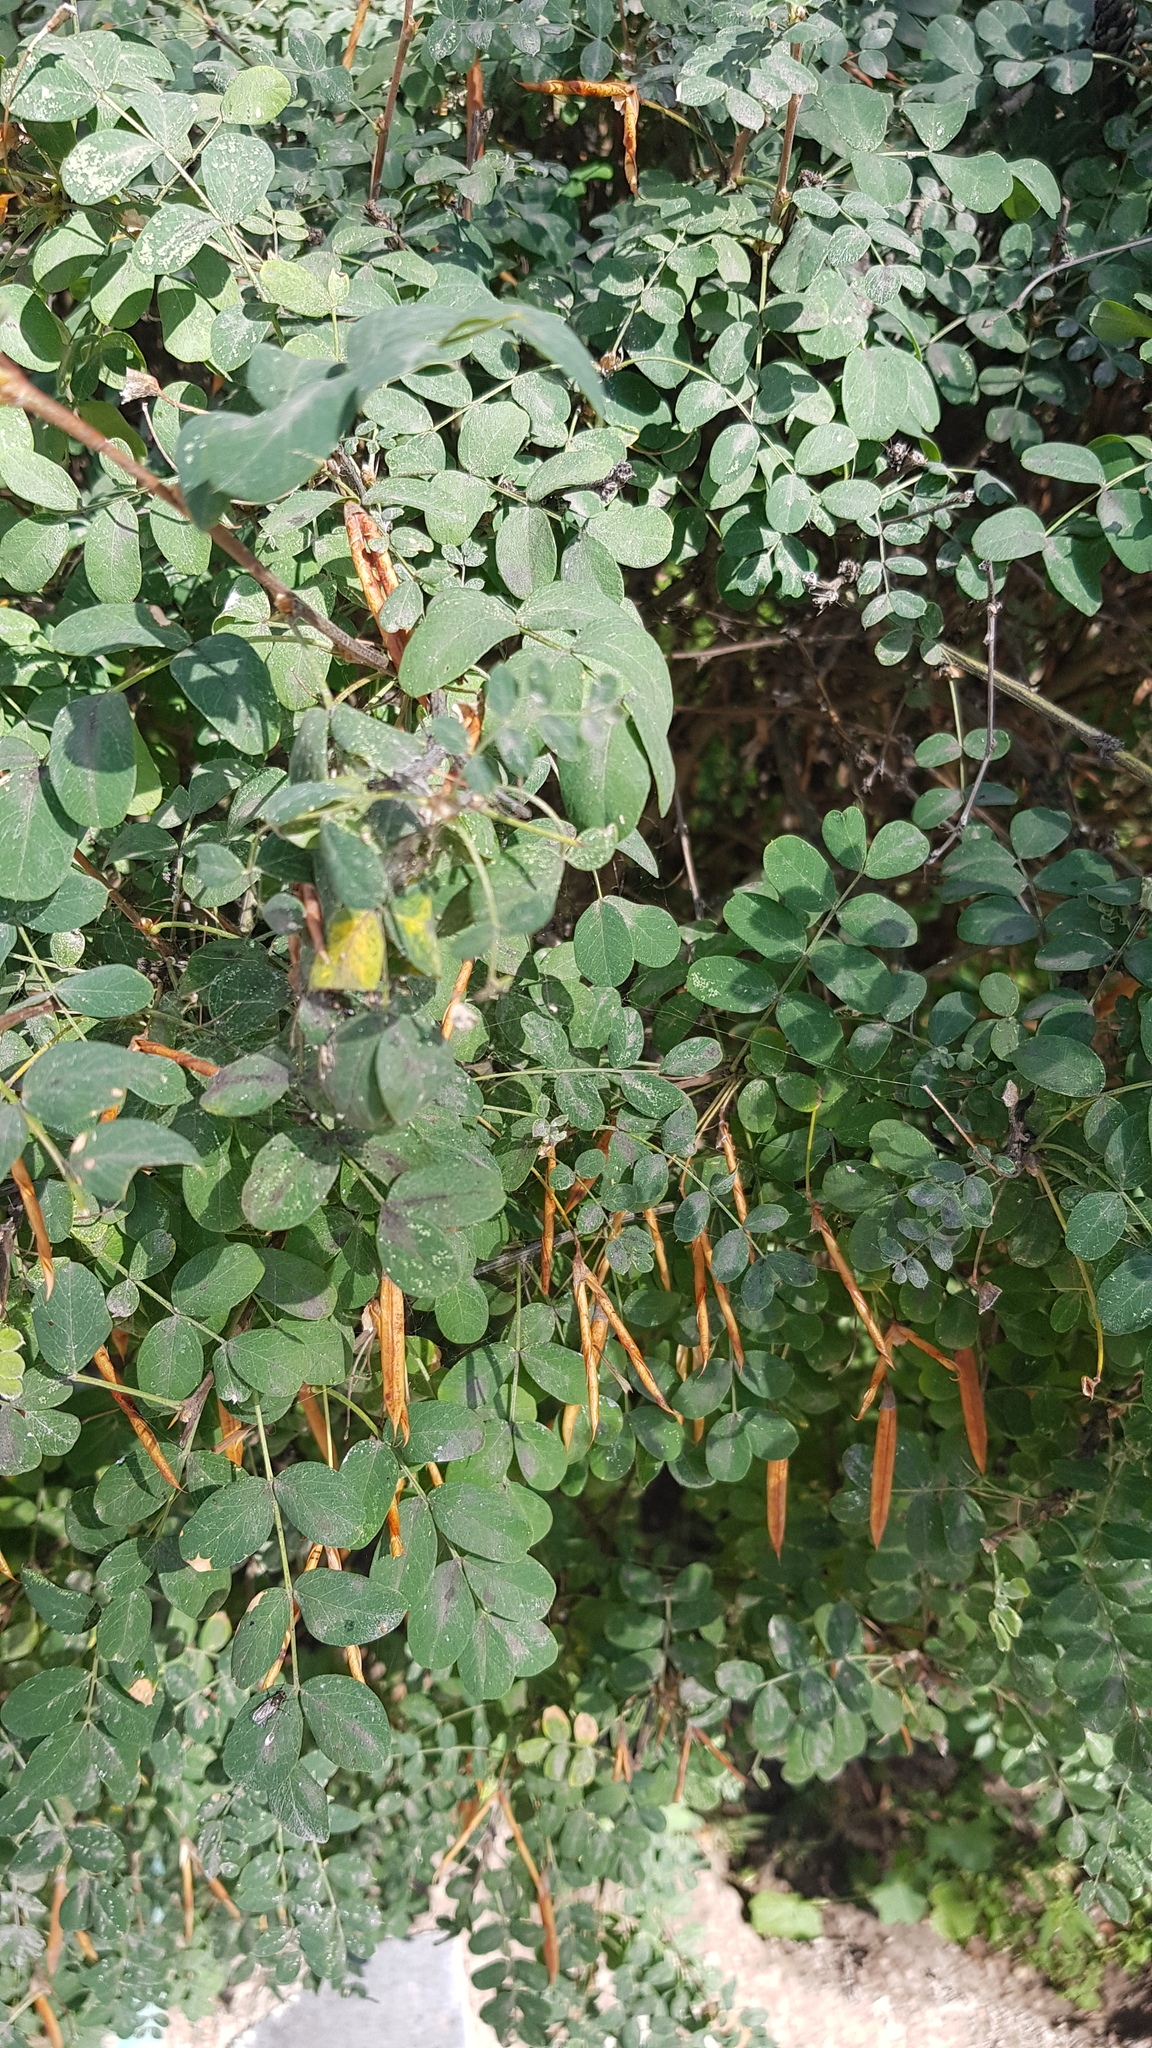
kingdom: Plantae
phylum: Tracheophyta
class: Magnoliopsida
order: Fabales
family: Fabaceae
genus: Caragana
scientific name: Caragana arborescens
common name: Siberian peashrub
